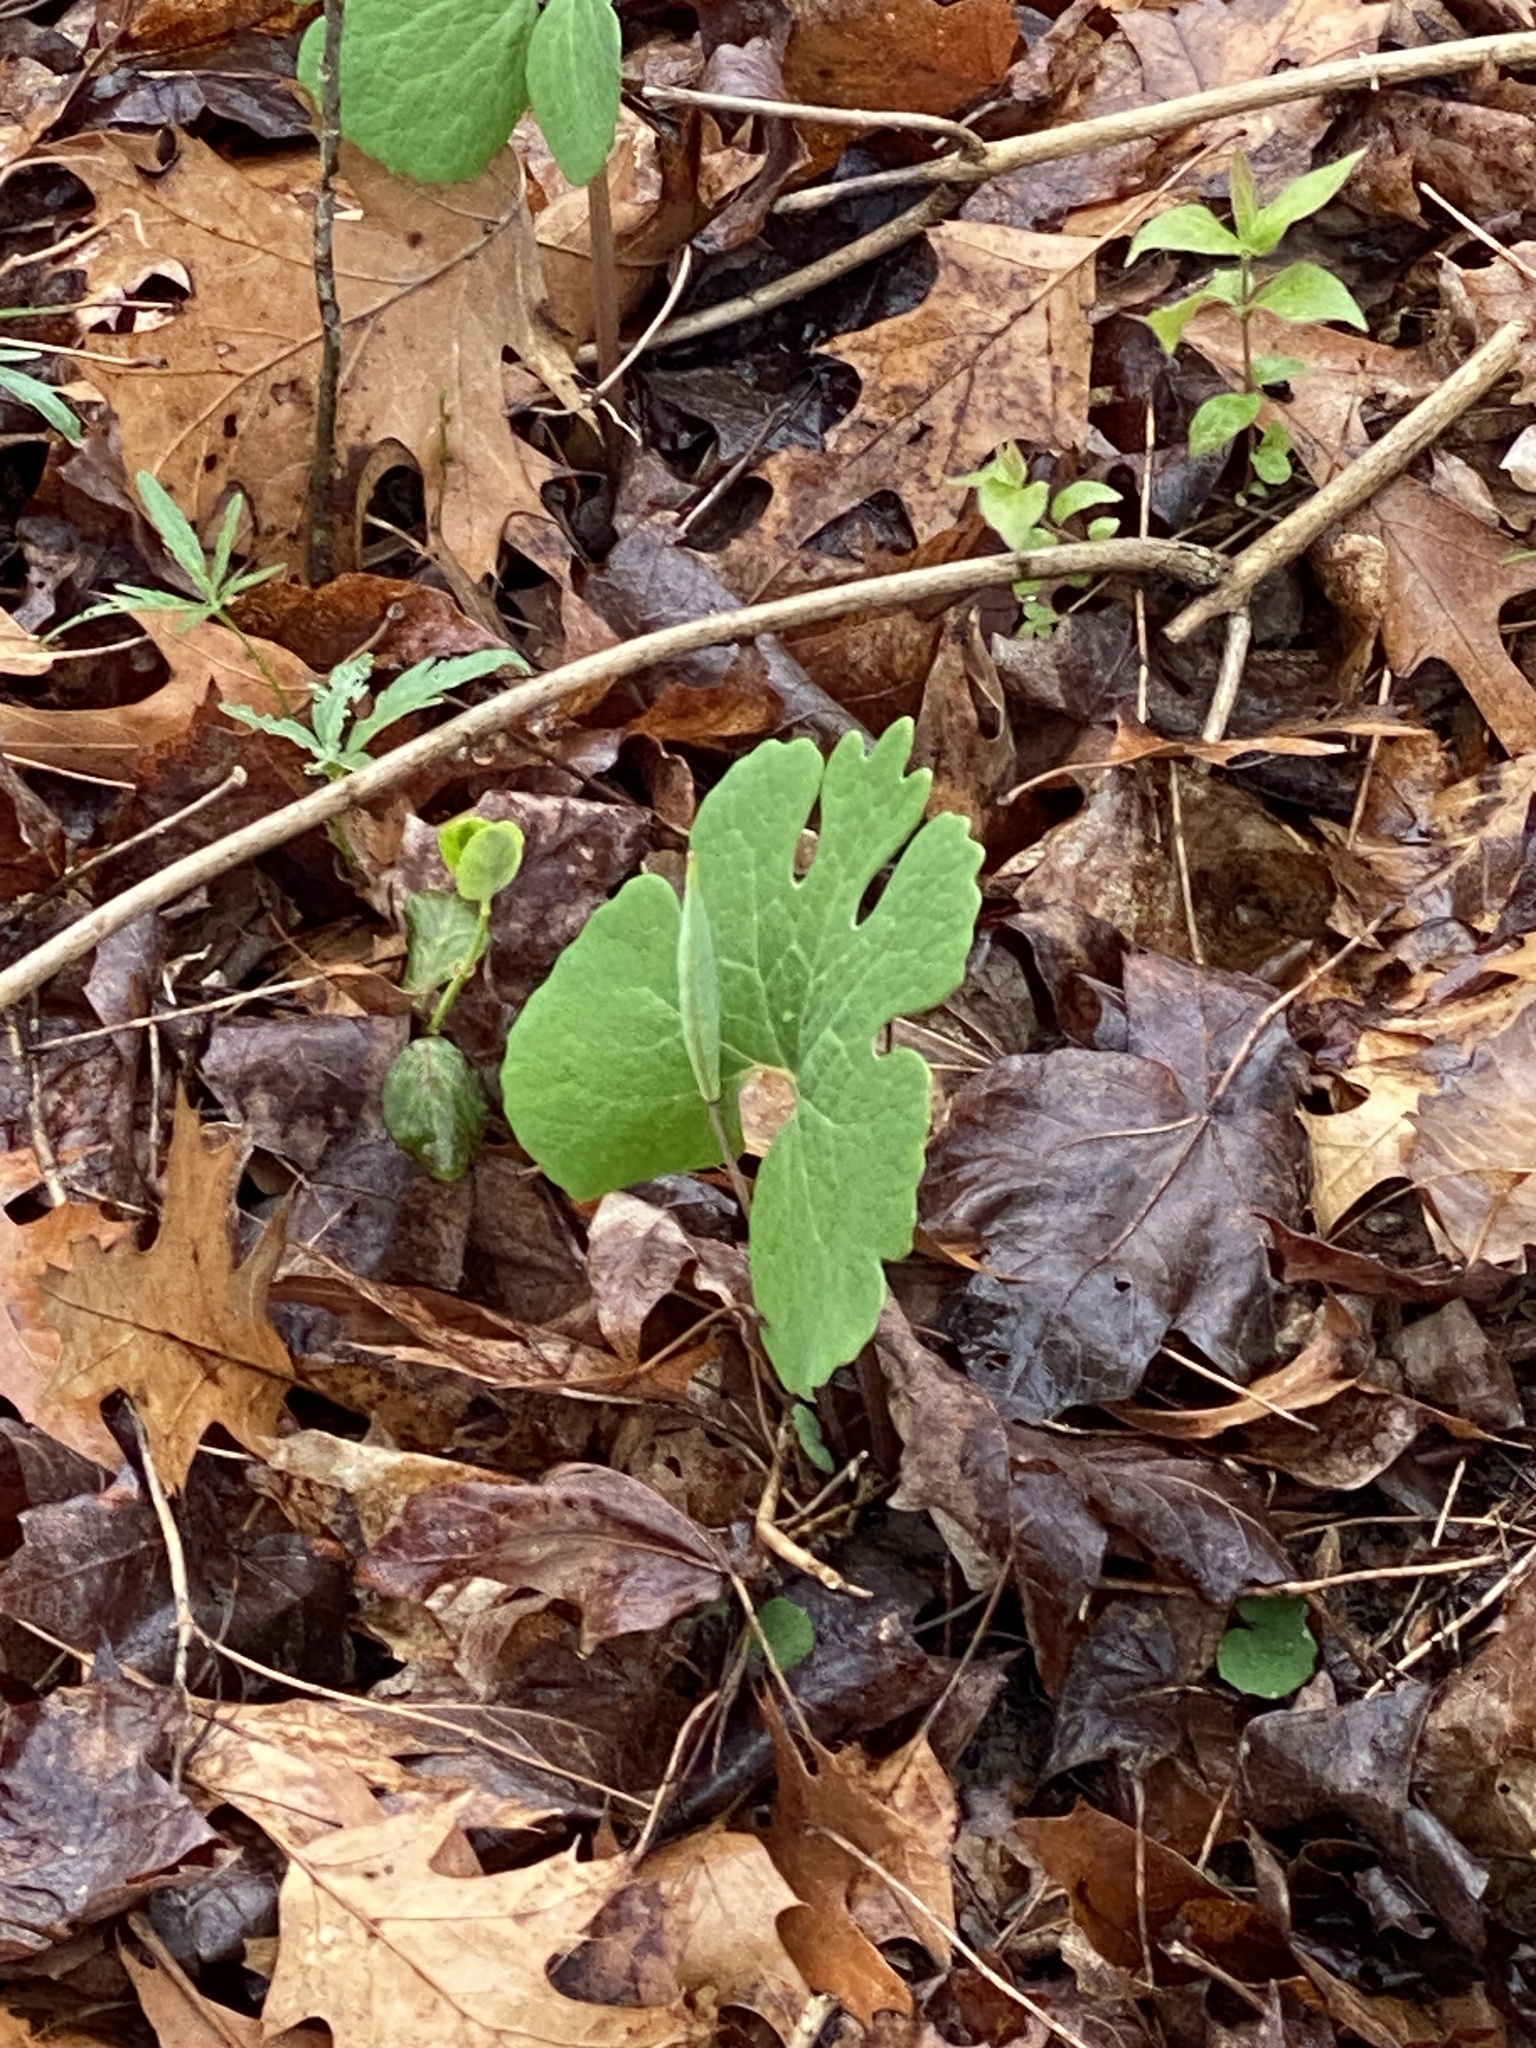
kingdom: Plantae
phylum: Tracheophyta
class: Magnoliopsida
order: Ranunculales
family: Papaveraceae
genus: Sanguinaria
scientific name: Sanguinaria canadensis
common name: Bloodroot
